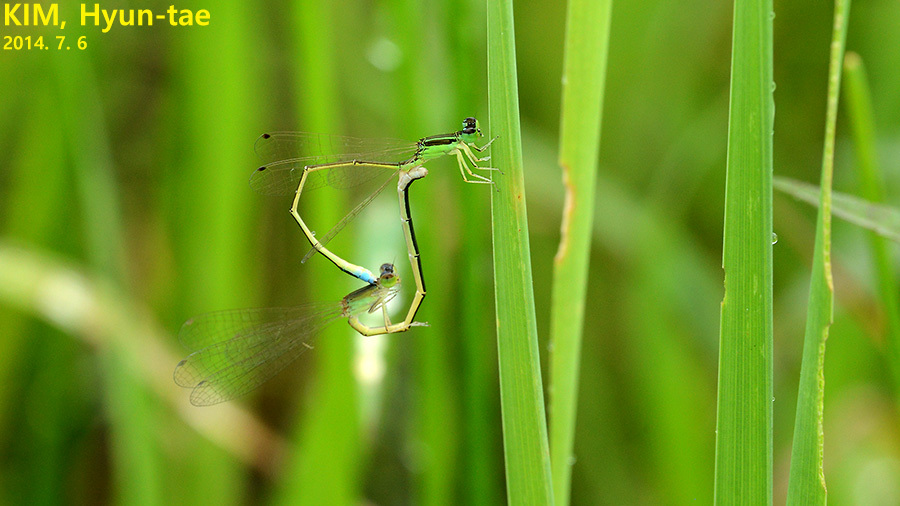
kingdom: Animalia
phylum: Arthropoda
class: Insecta
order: Odonata
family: Coenagrionidae
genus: Ischnura
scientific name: Ischnura asiatica
